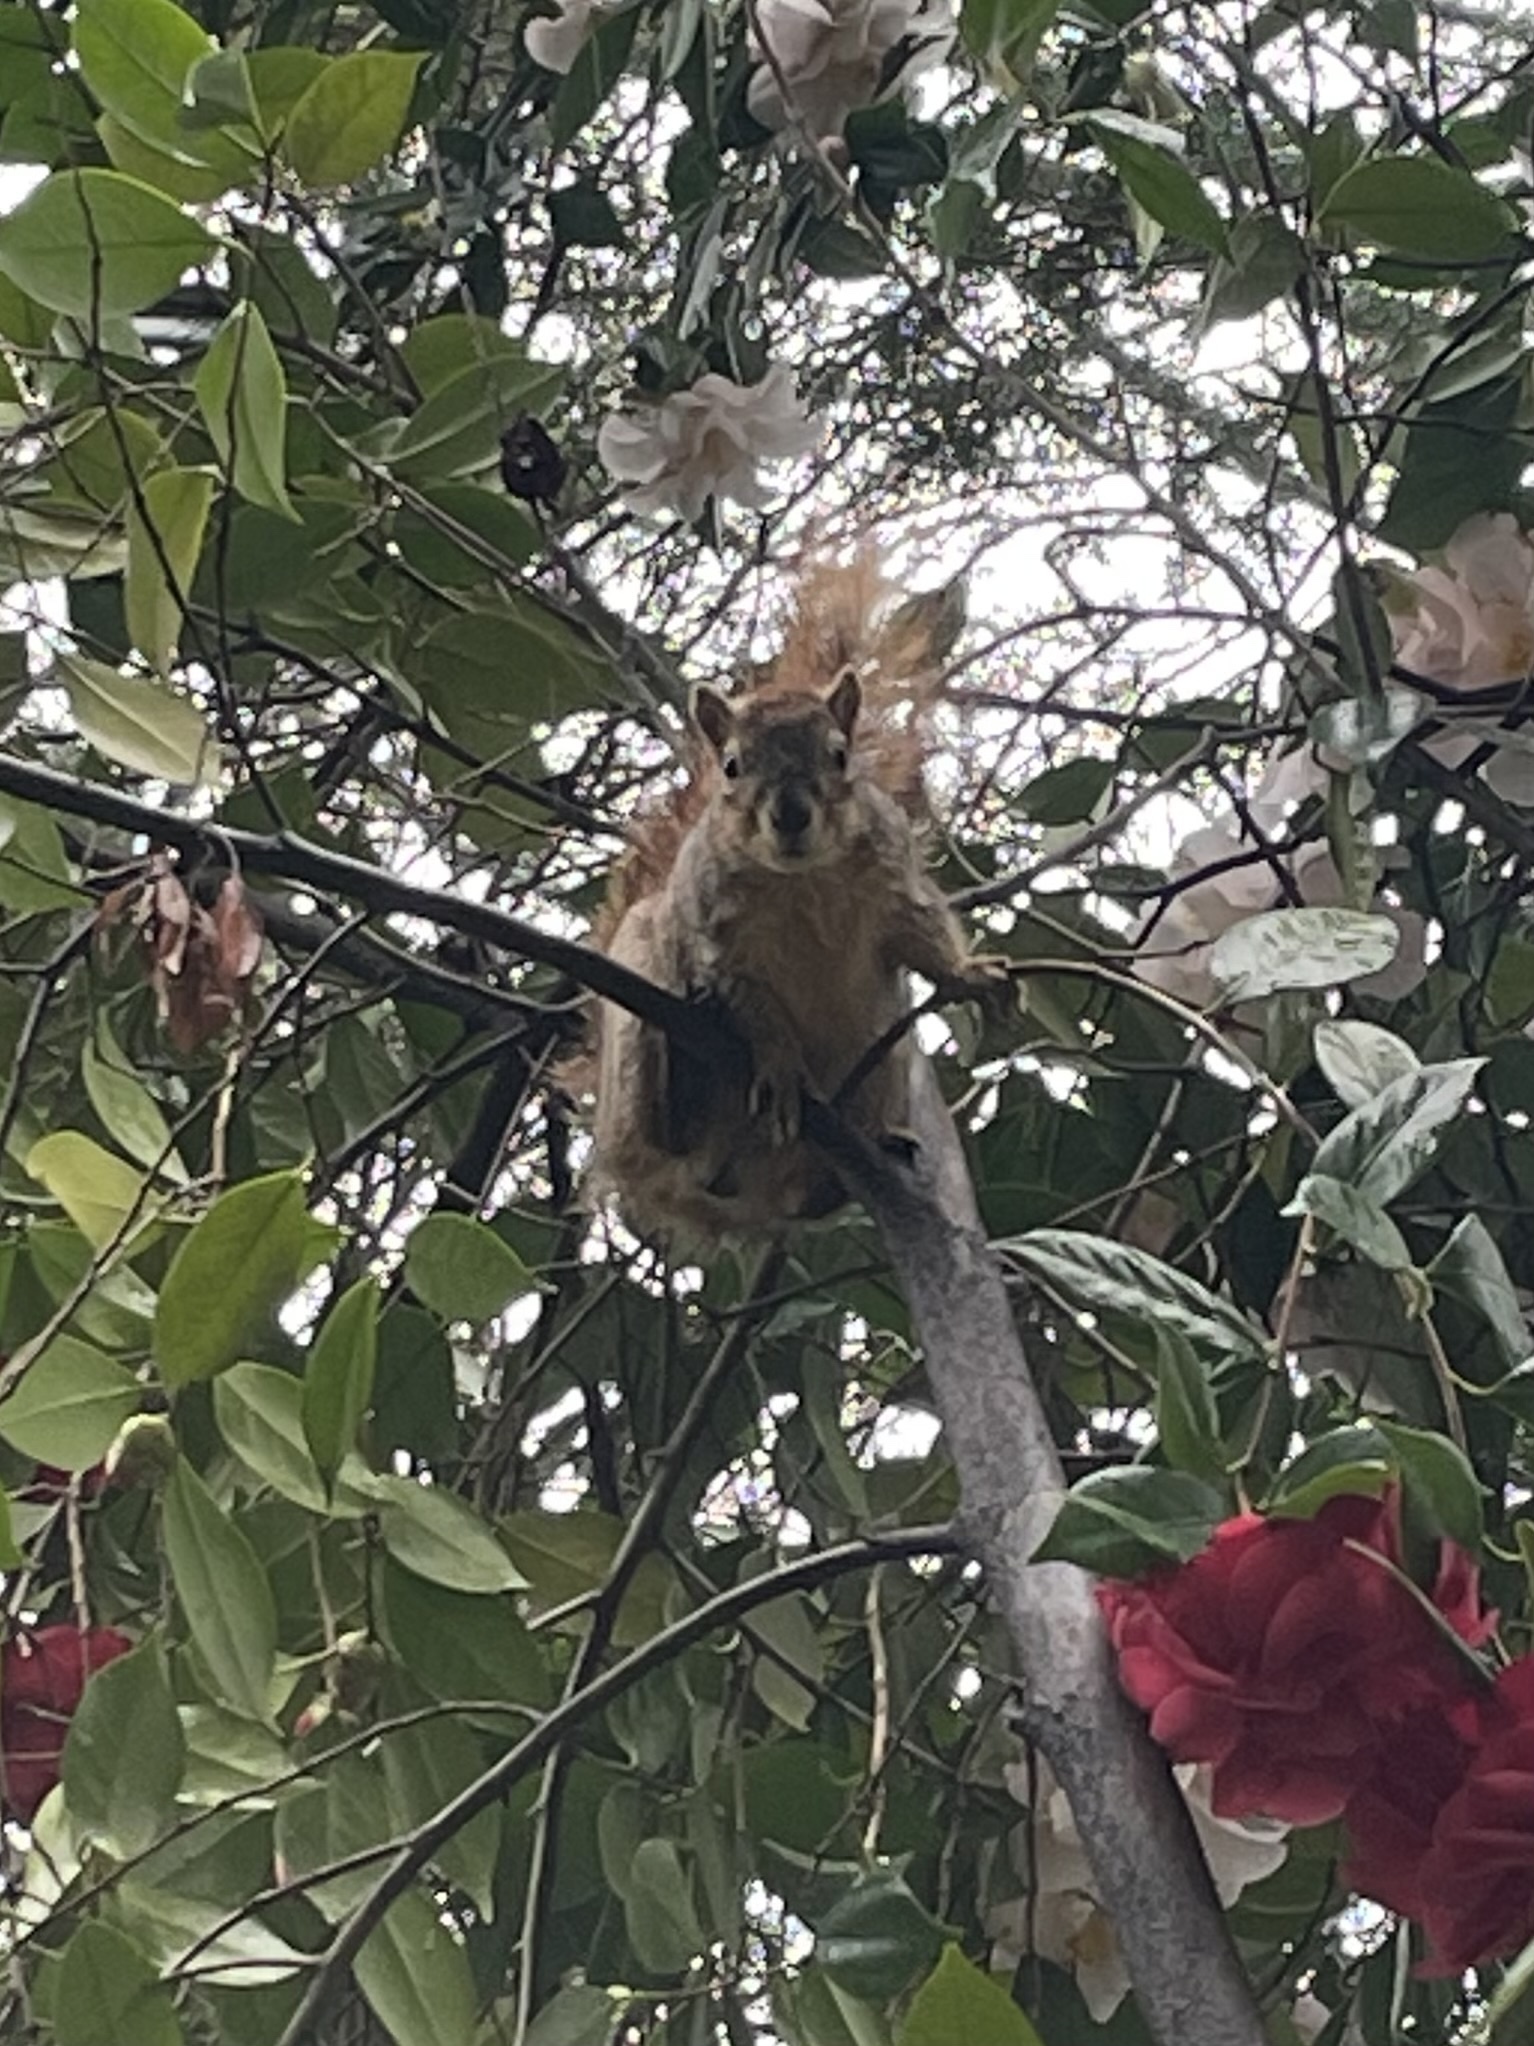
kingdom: Animalia
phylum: Chordata
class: Mammalia
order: Rodentia
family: Sciuridae
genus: Sciurus
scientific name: Sciurus niger
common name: Fox squirrel
